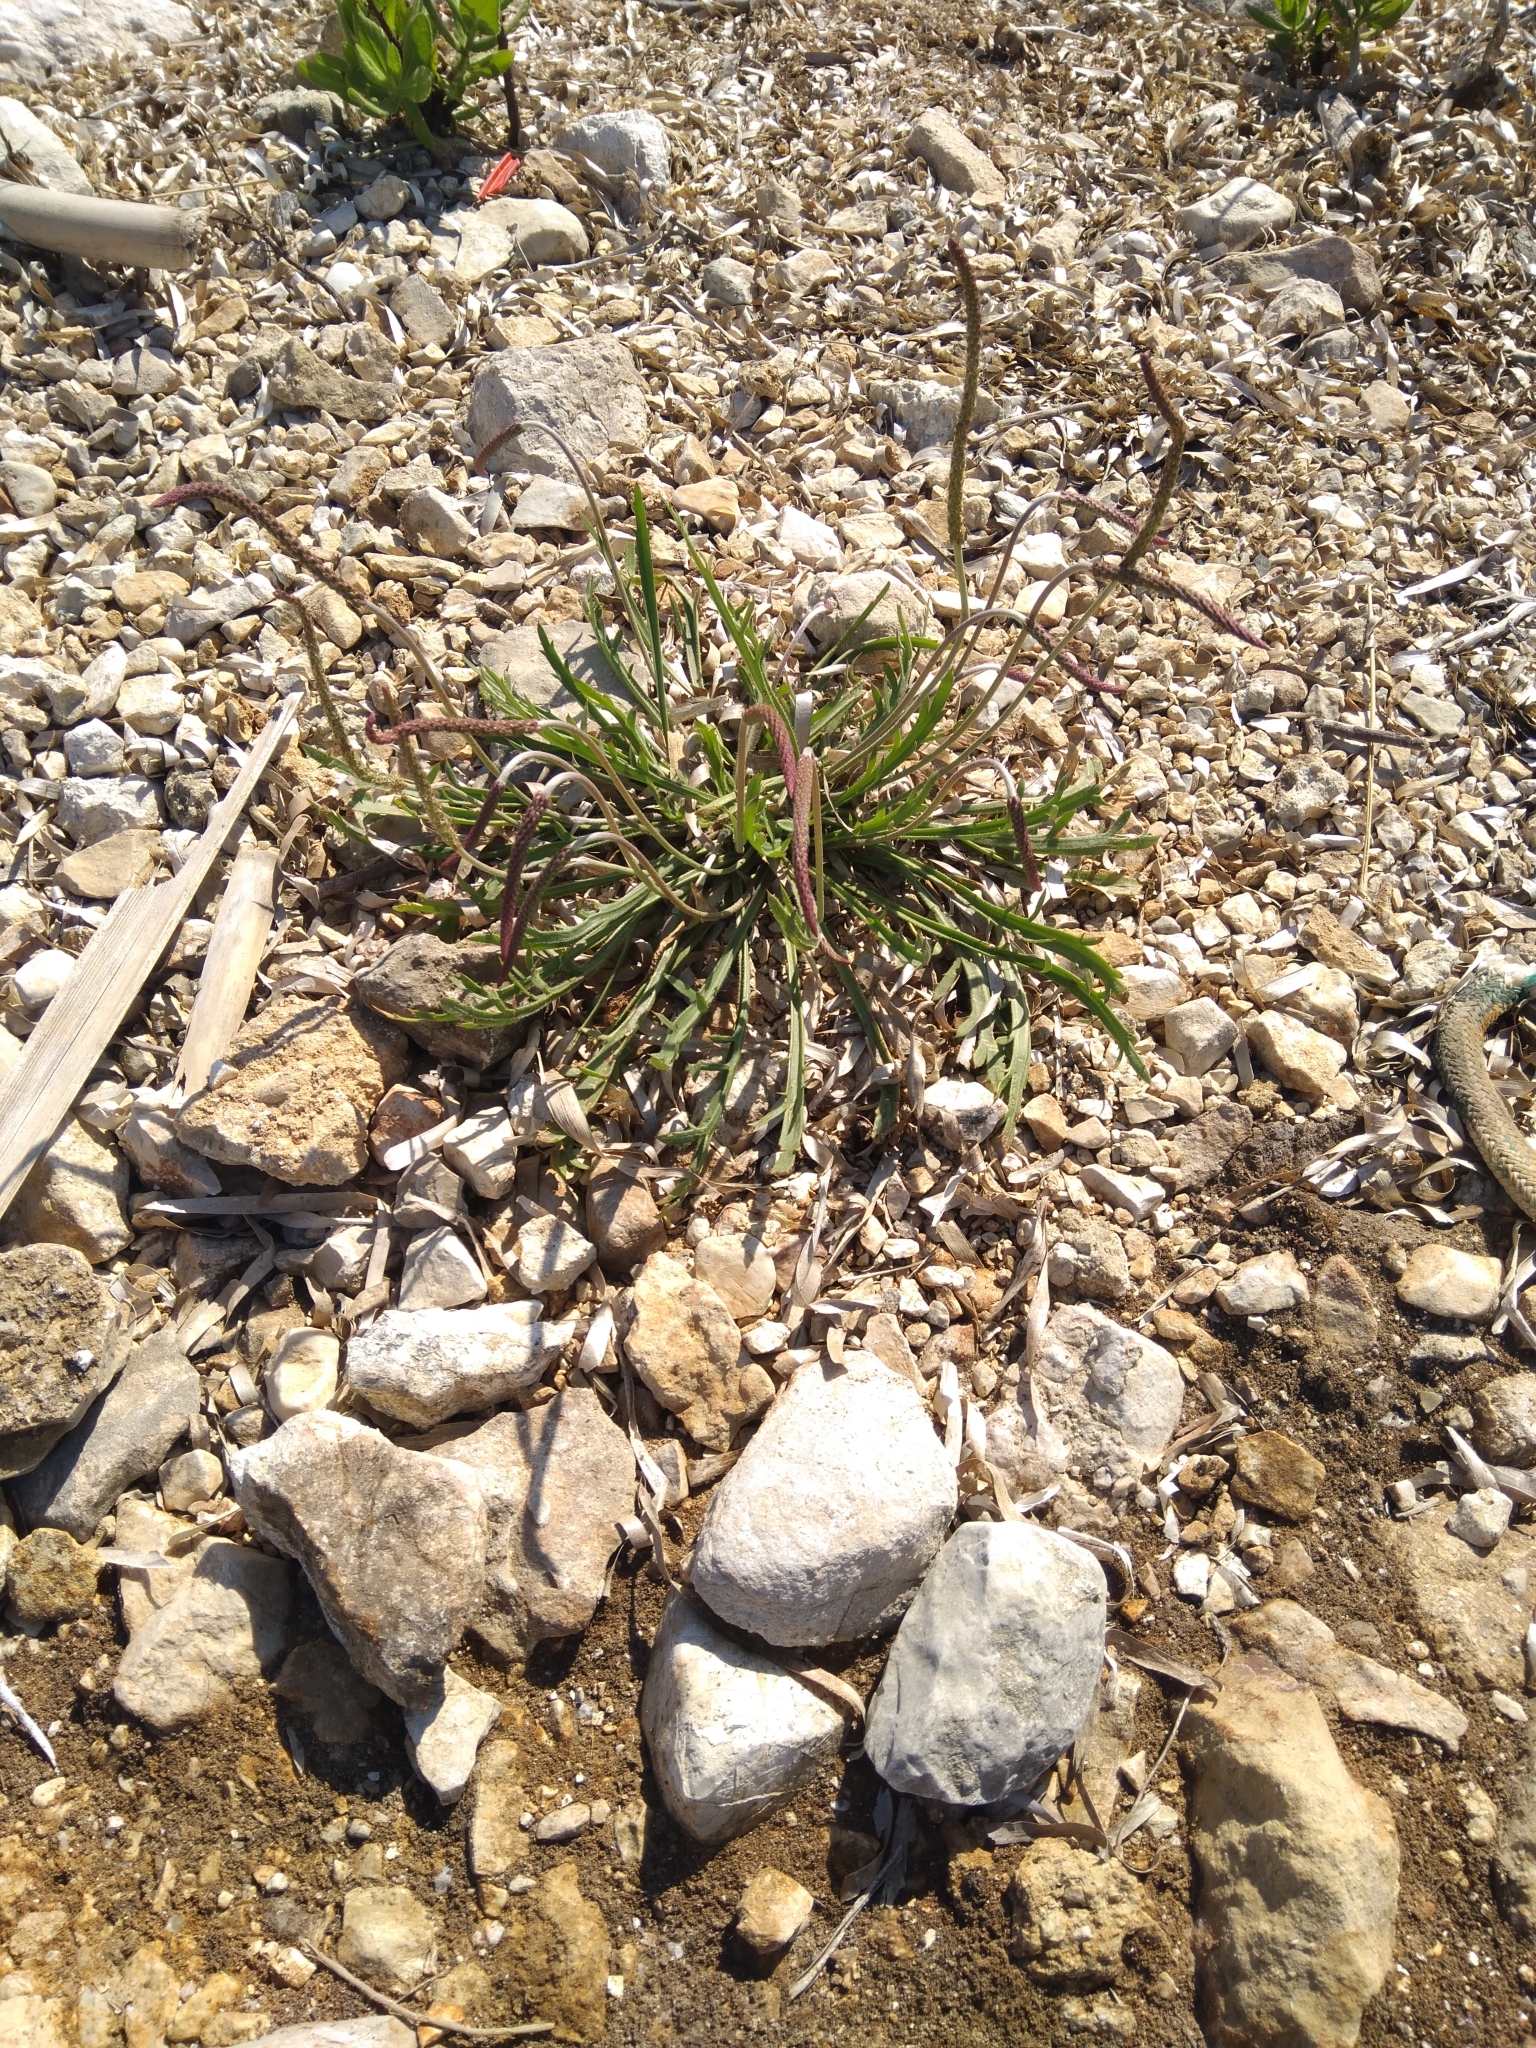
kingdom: Plantae
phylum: Tracheophyta
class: Magnoliopsida
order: Lamiales
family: Plantaginaceae
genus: Plantago
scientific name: Plantago coronopus
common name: Buck's-horn plantain
